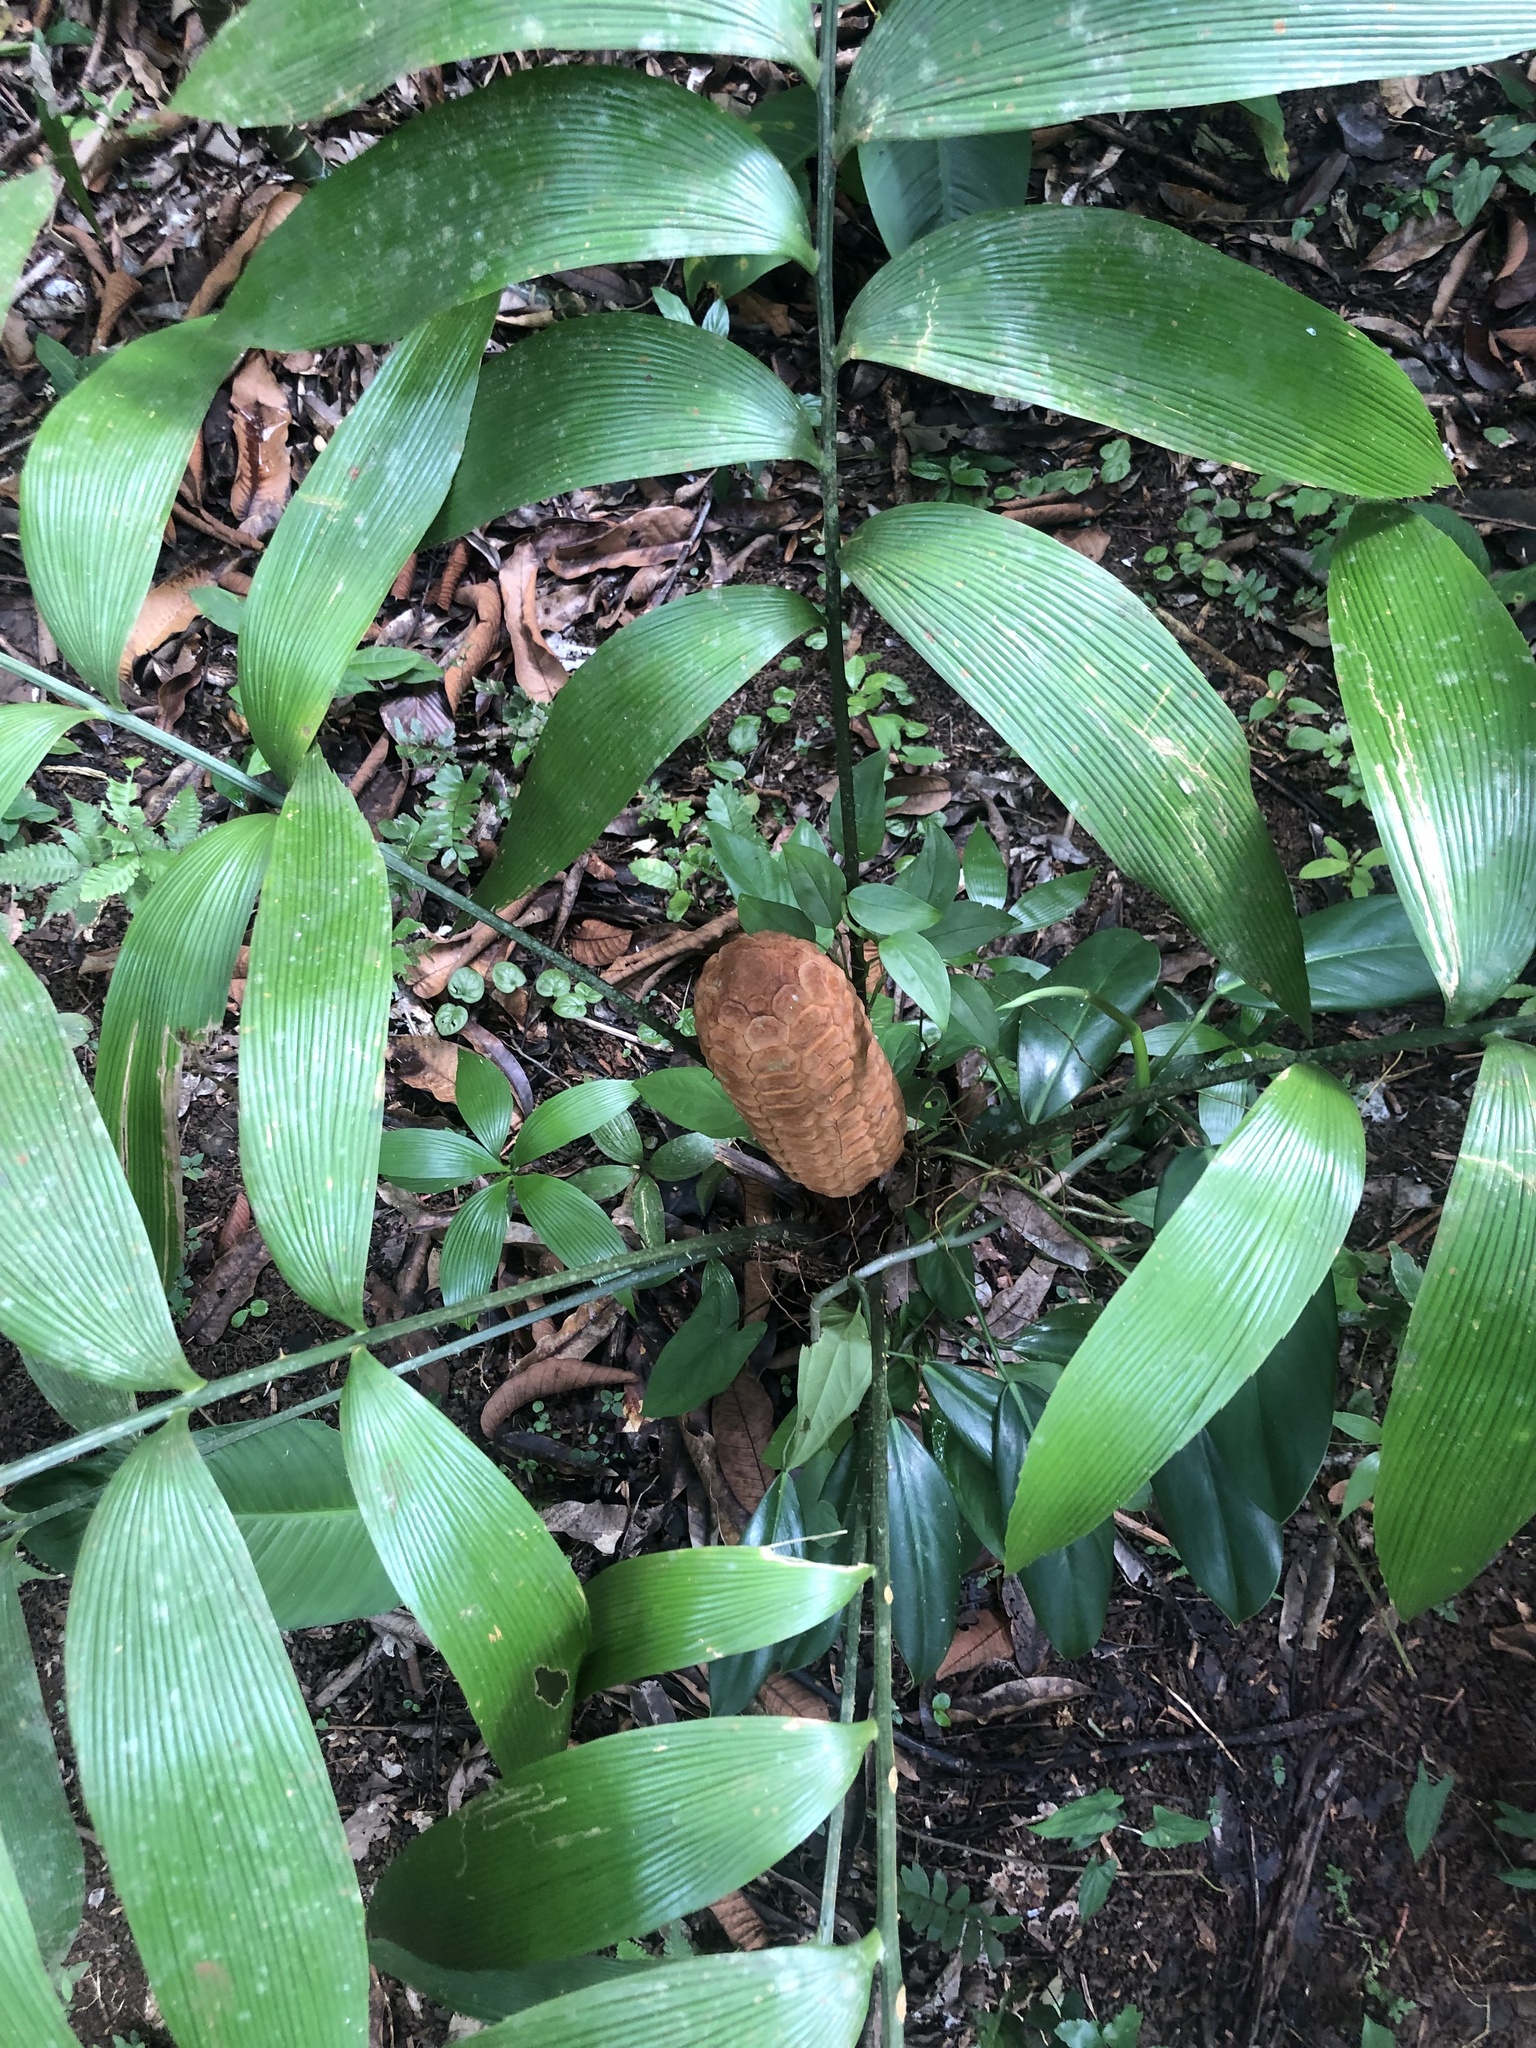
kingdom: Plantae
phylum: Tracheophyta
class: Cycadopsida
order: Cycadales
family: Zamiaceae
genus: Zamia
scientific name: Zamia nesophila
